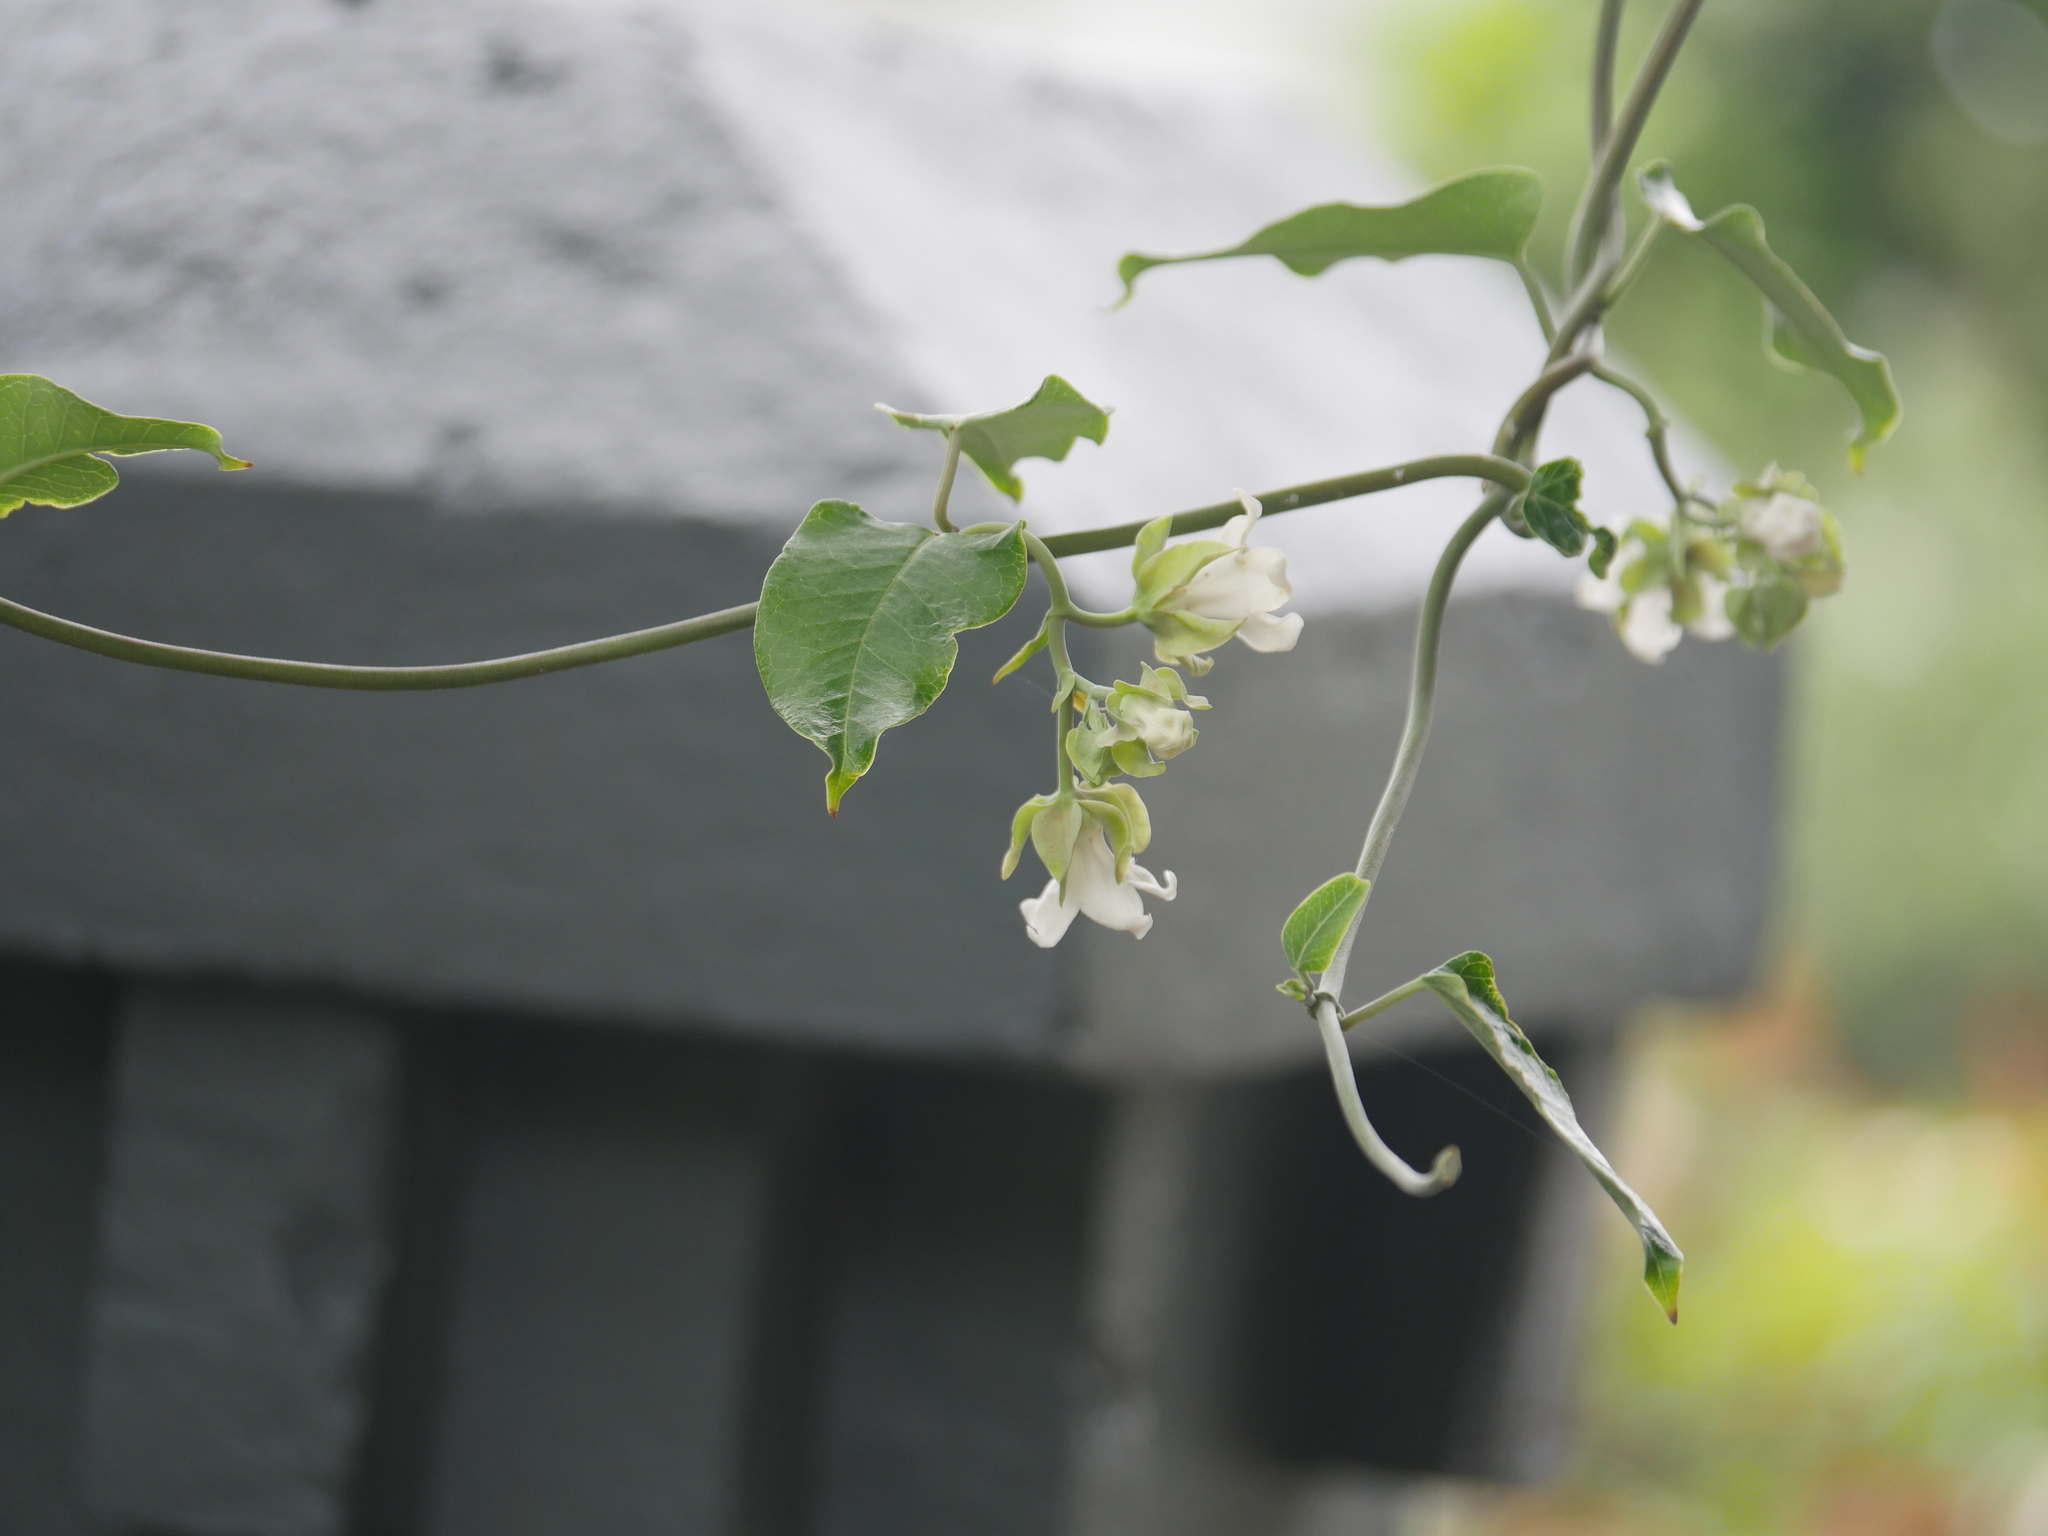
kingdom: Plantae
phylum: Tracheophyta
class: Magnoliopsida
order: Gentianales
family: Apocynaceae
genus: Araujia
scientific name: Araujia sericifera
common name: White bladderflower
